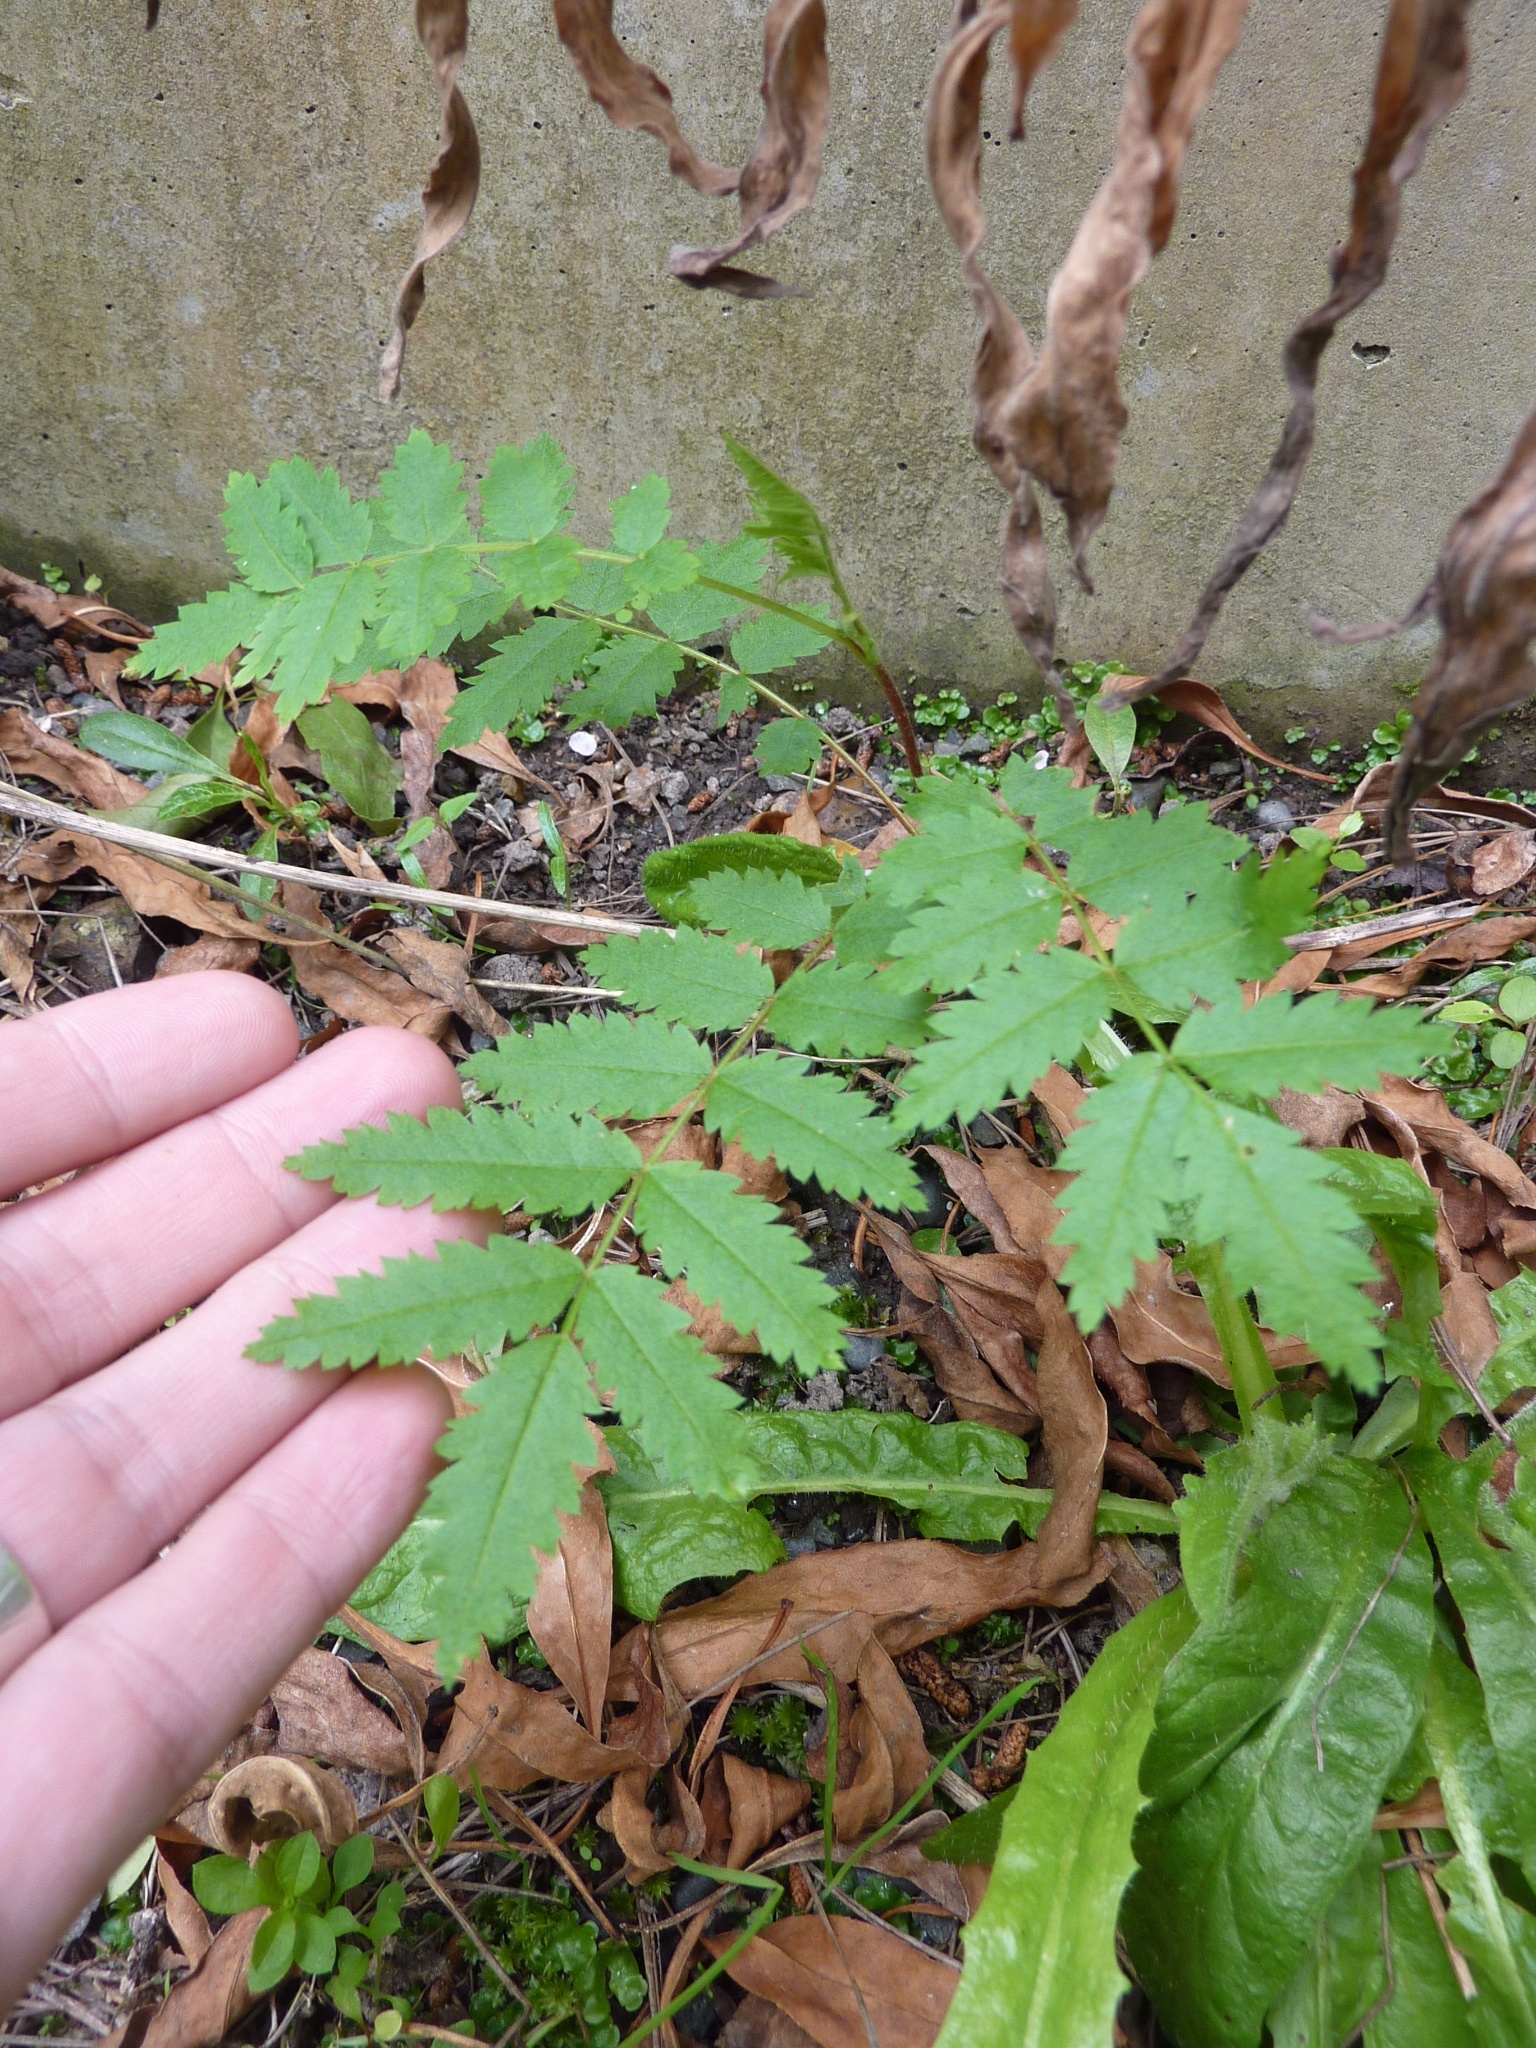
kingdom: Plantae
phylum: Tracheophyta
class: Magnoliopsida
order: Rosales
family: Rosaceae
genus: Sorbus
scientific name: Sorbus aucuparia
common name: Rowan
